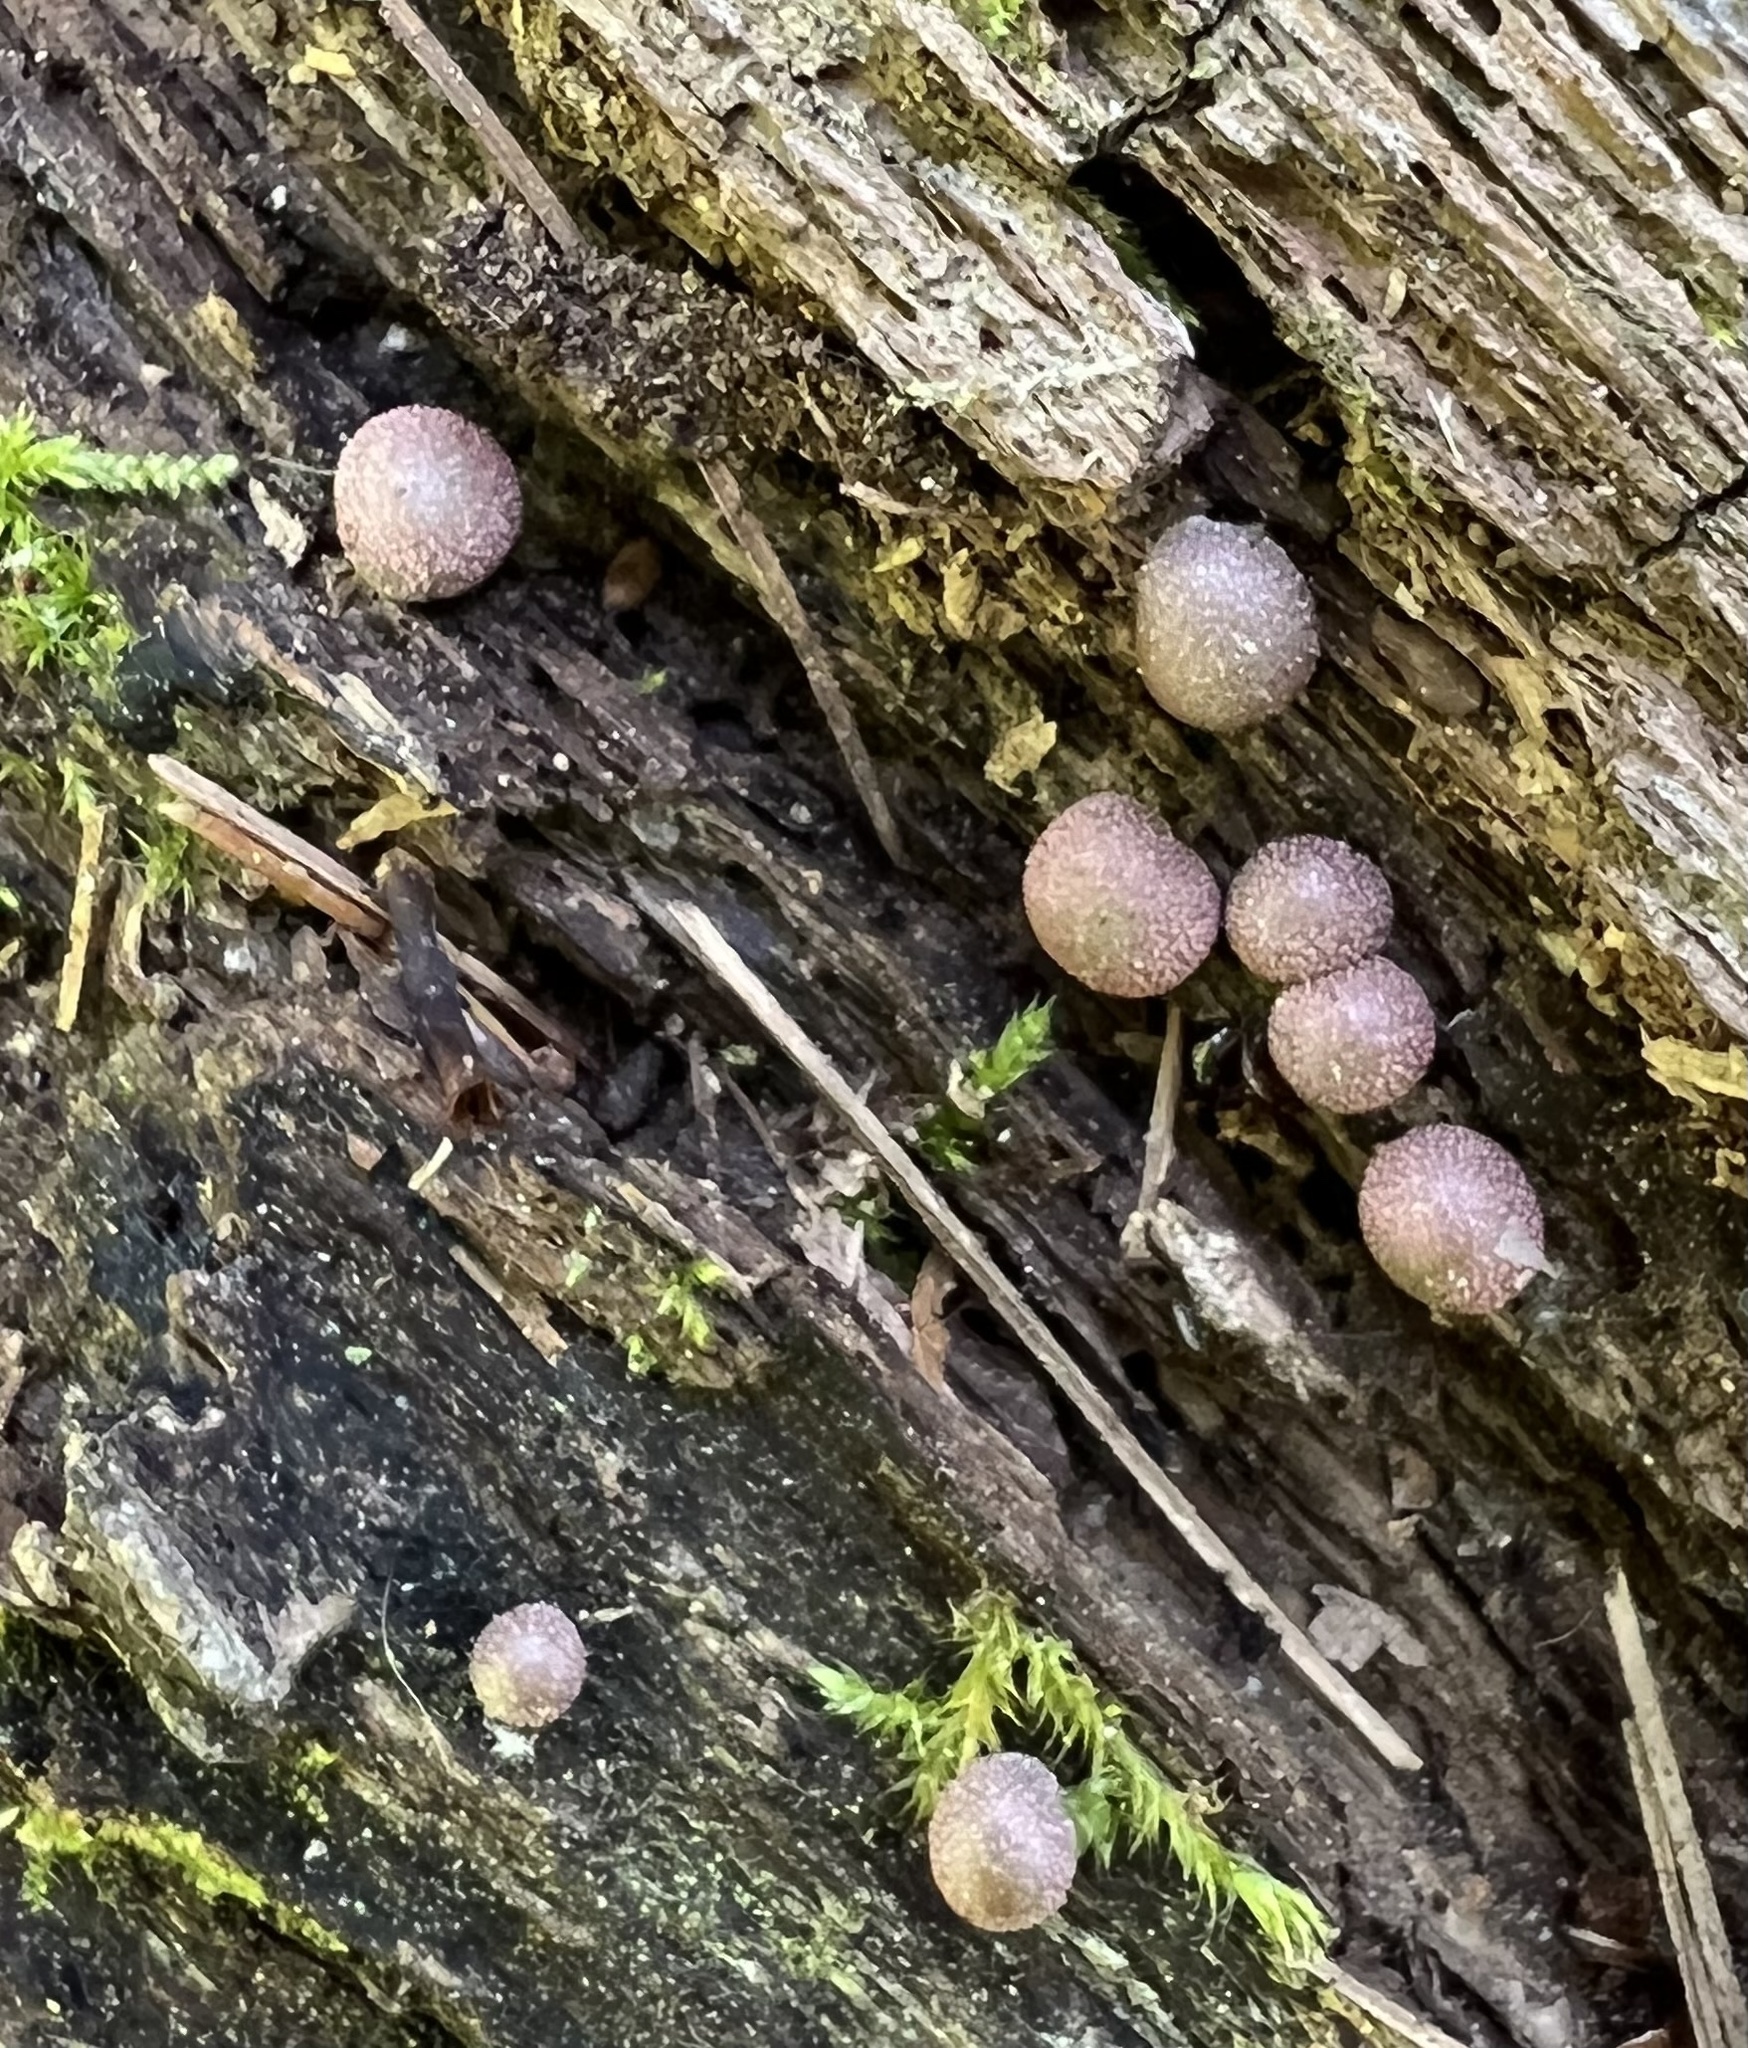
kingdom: Protozoa
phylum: Mycetozoa
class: Myxomycetes
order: Cribrariales
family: Tubiferaceae
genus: Lycogala
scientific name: Lycogala epidendrum
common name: Wolf's milk
